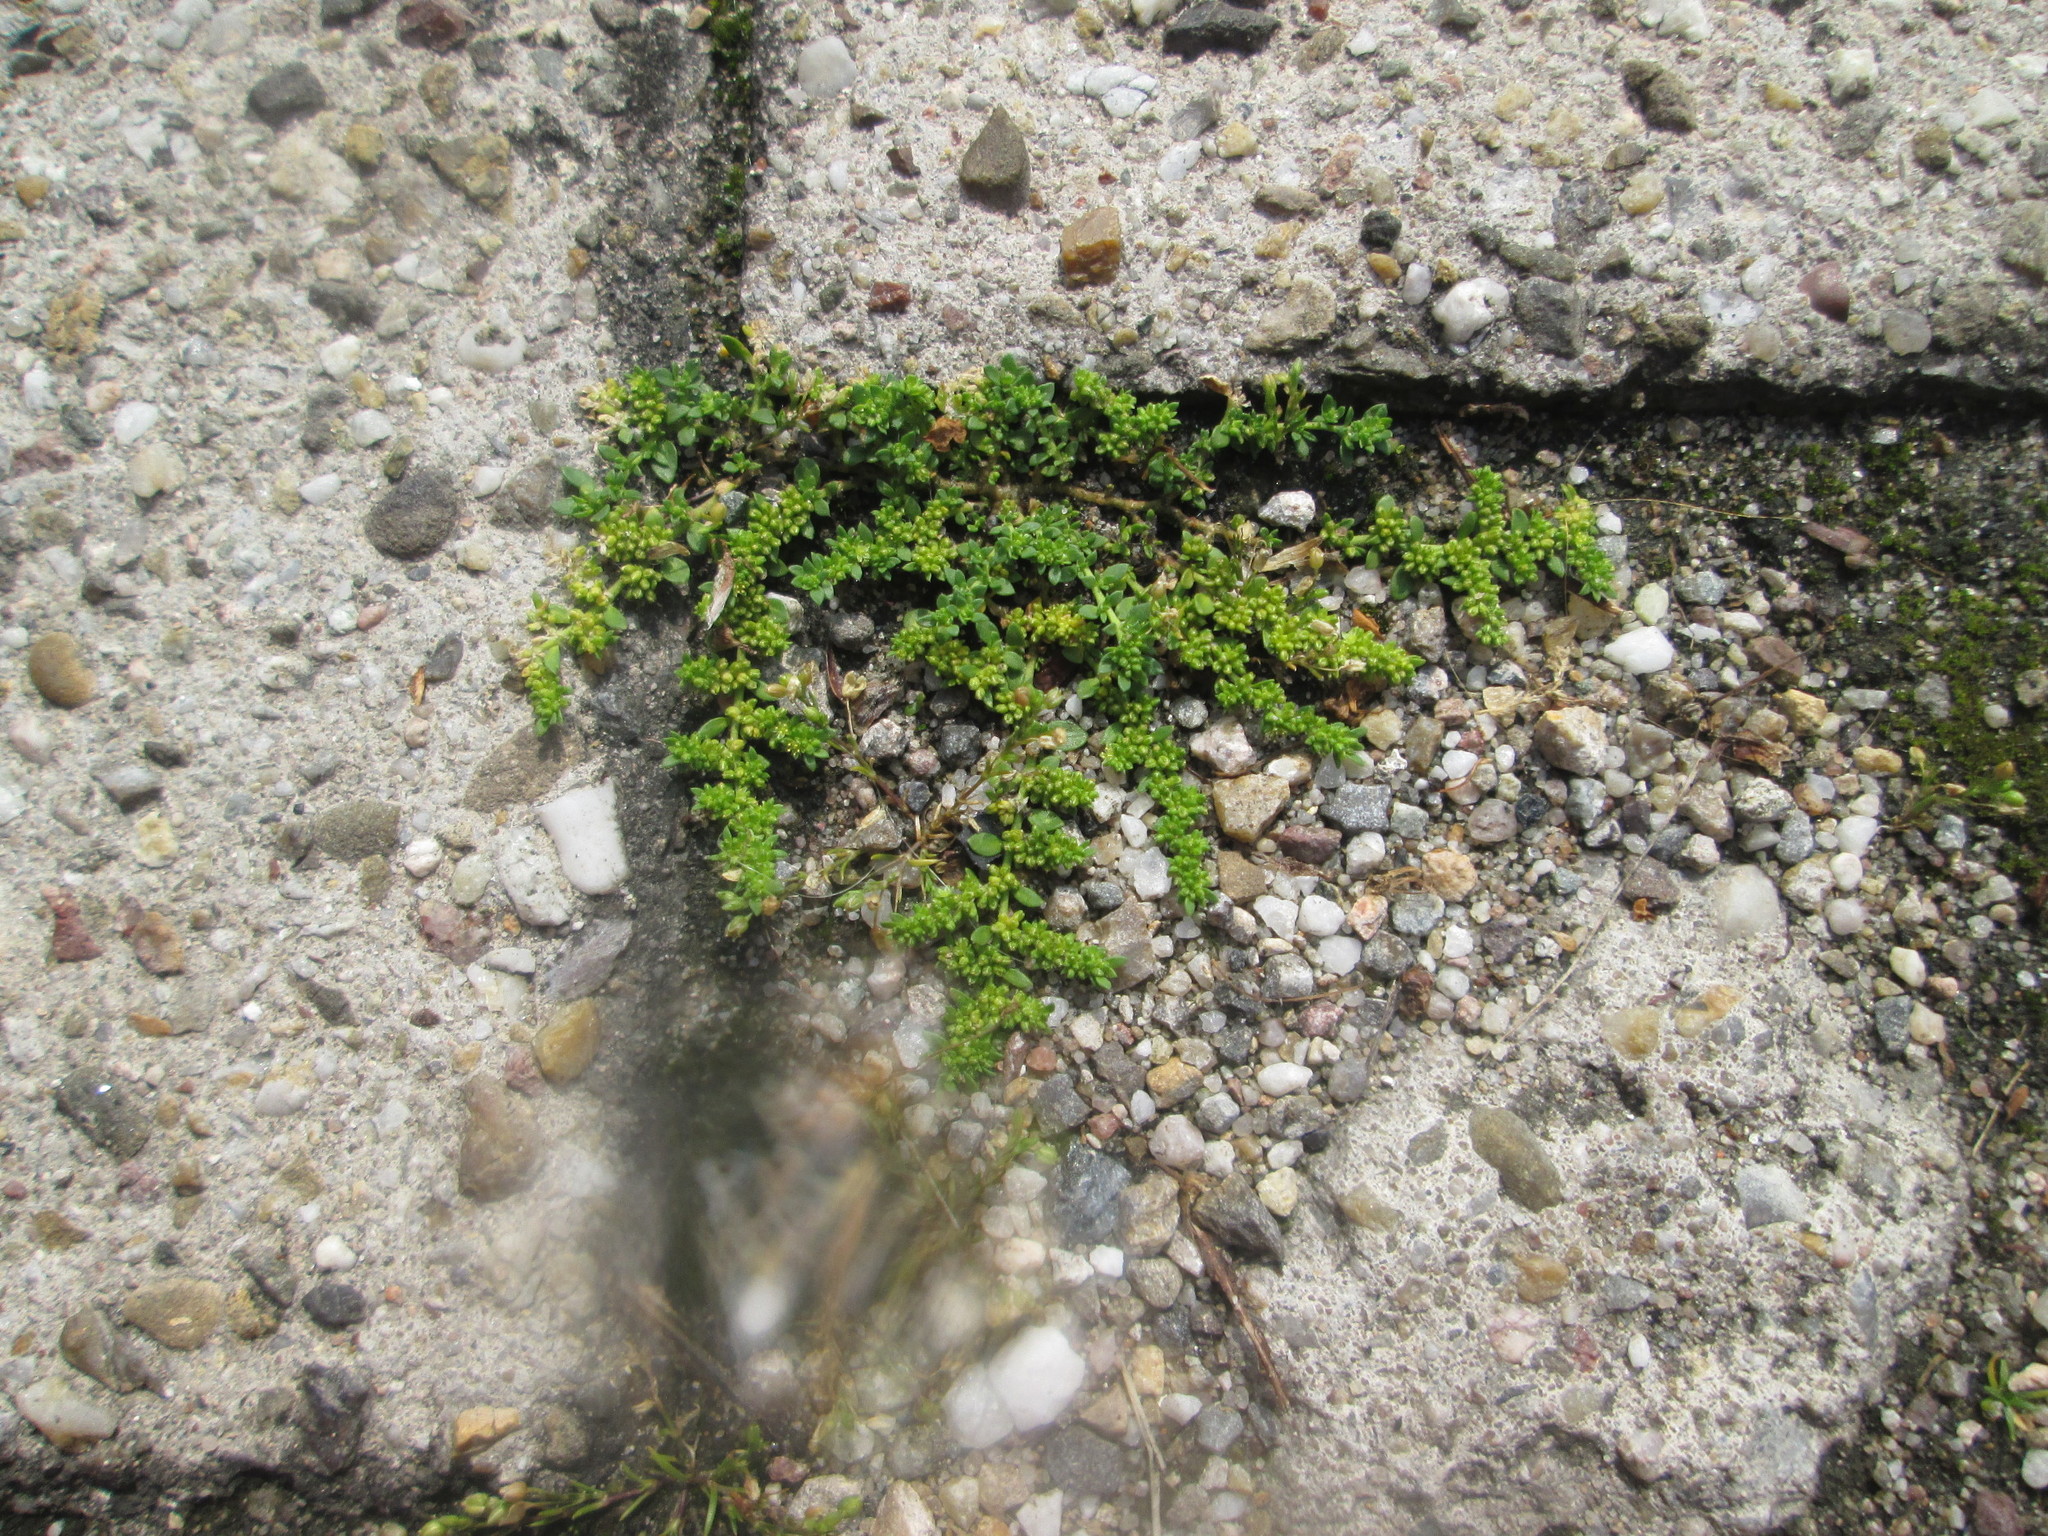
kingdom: Plantae
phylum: Tracheophyta
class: Magnoliopsida
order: Caryophyllales
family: Caryophyllaceae
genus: Herniaria
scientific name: Herniaria glabra
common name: Smooth rupturewort
